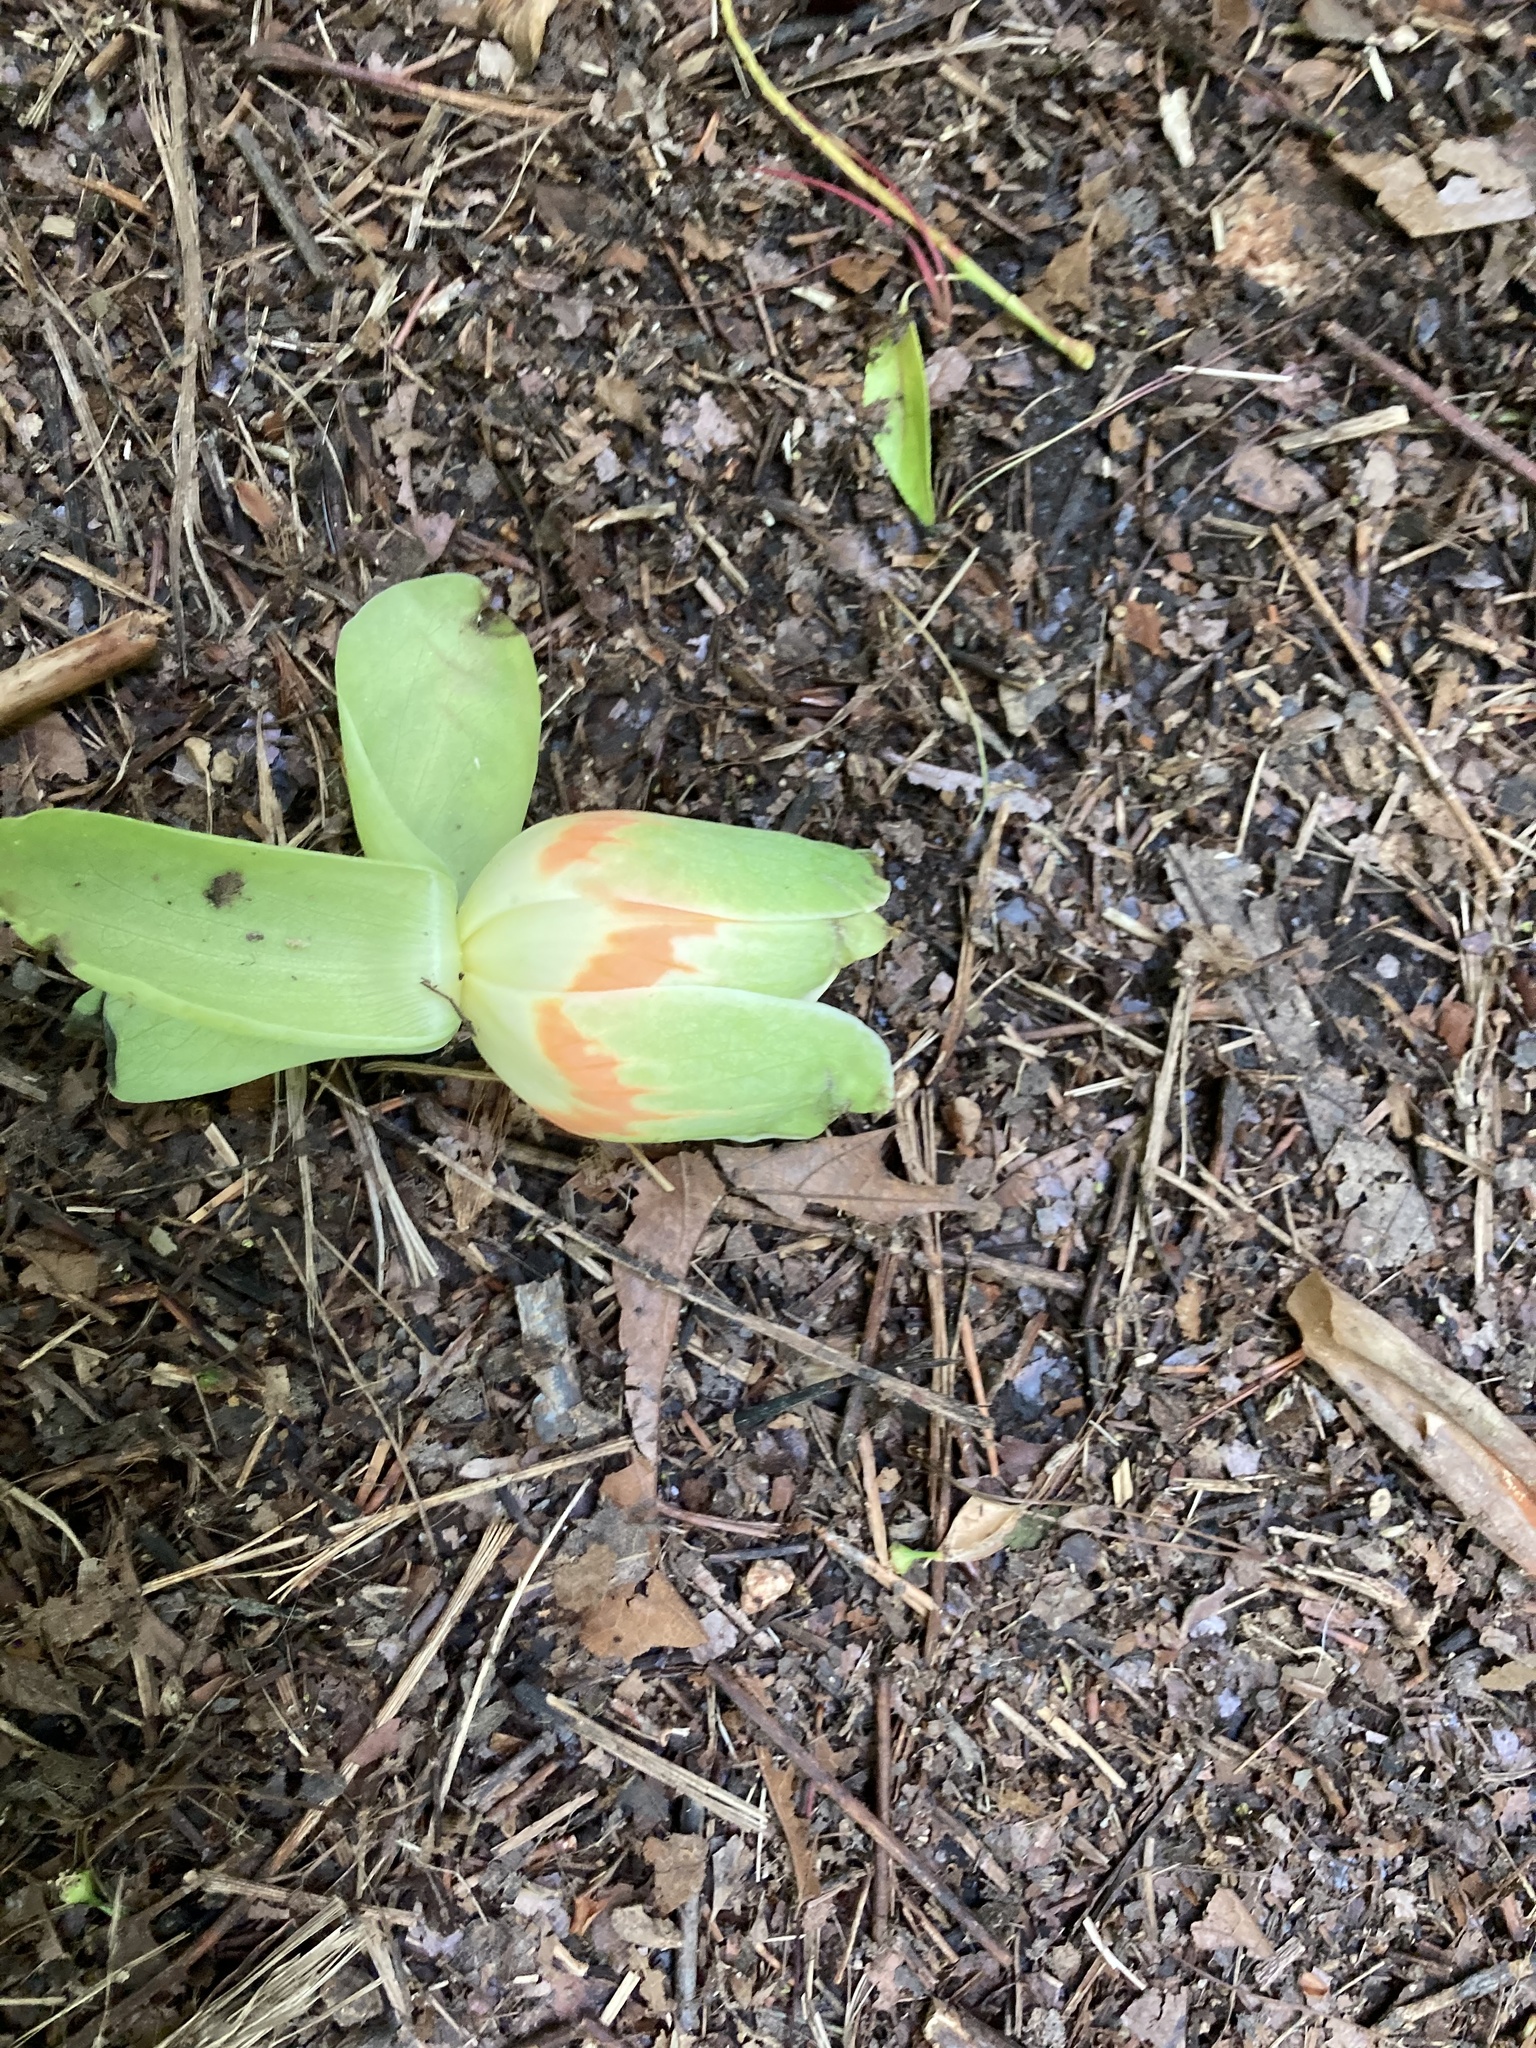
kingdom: Plantae
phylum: Tracheophyta
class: Magnoliopsida
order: Magnoliales
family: Magnoliaceae
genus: Liriodendron
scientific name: Liriodendron tulipifera
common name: Tulip tree
